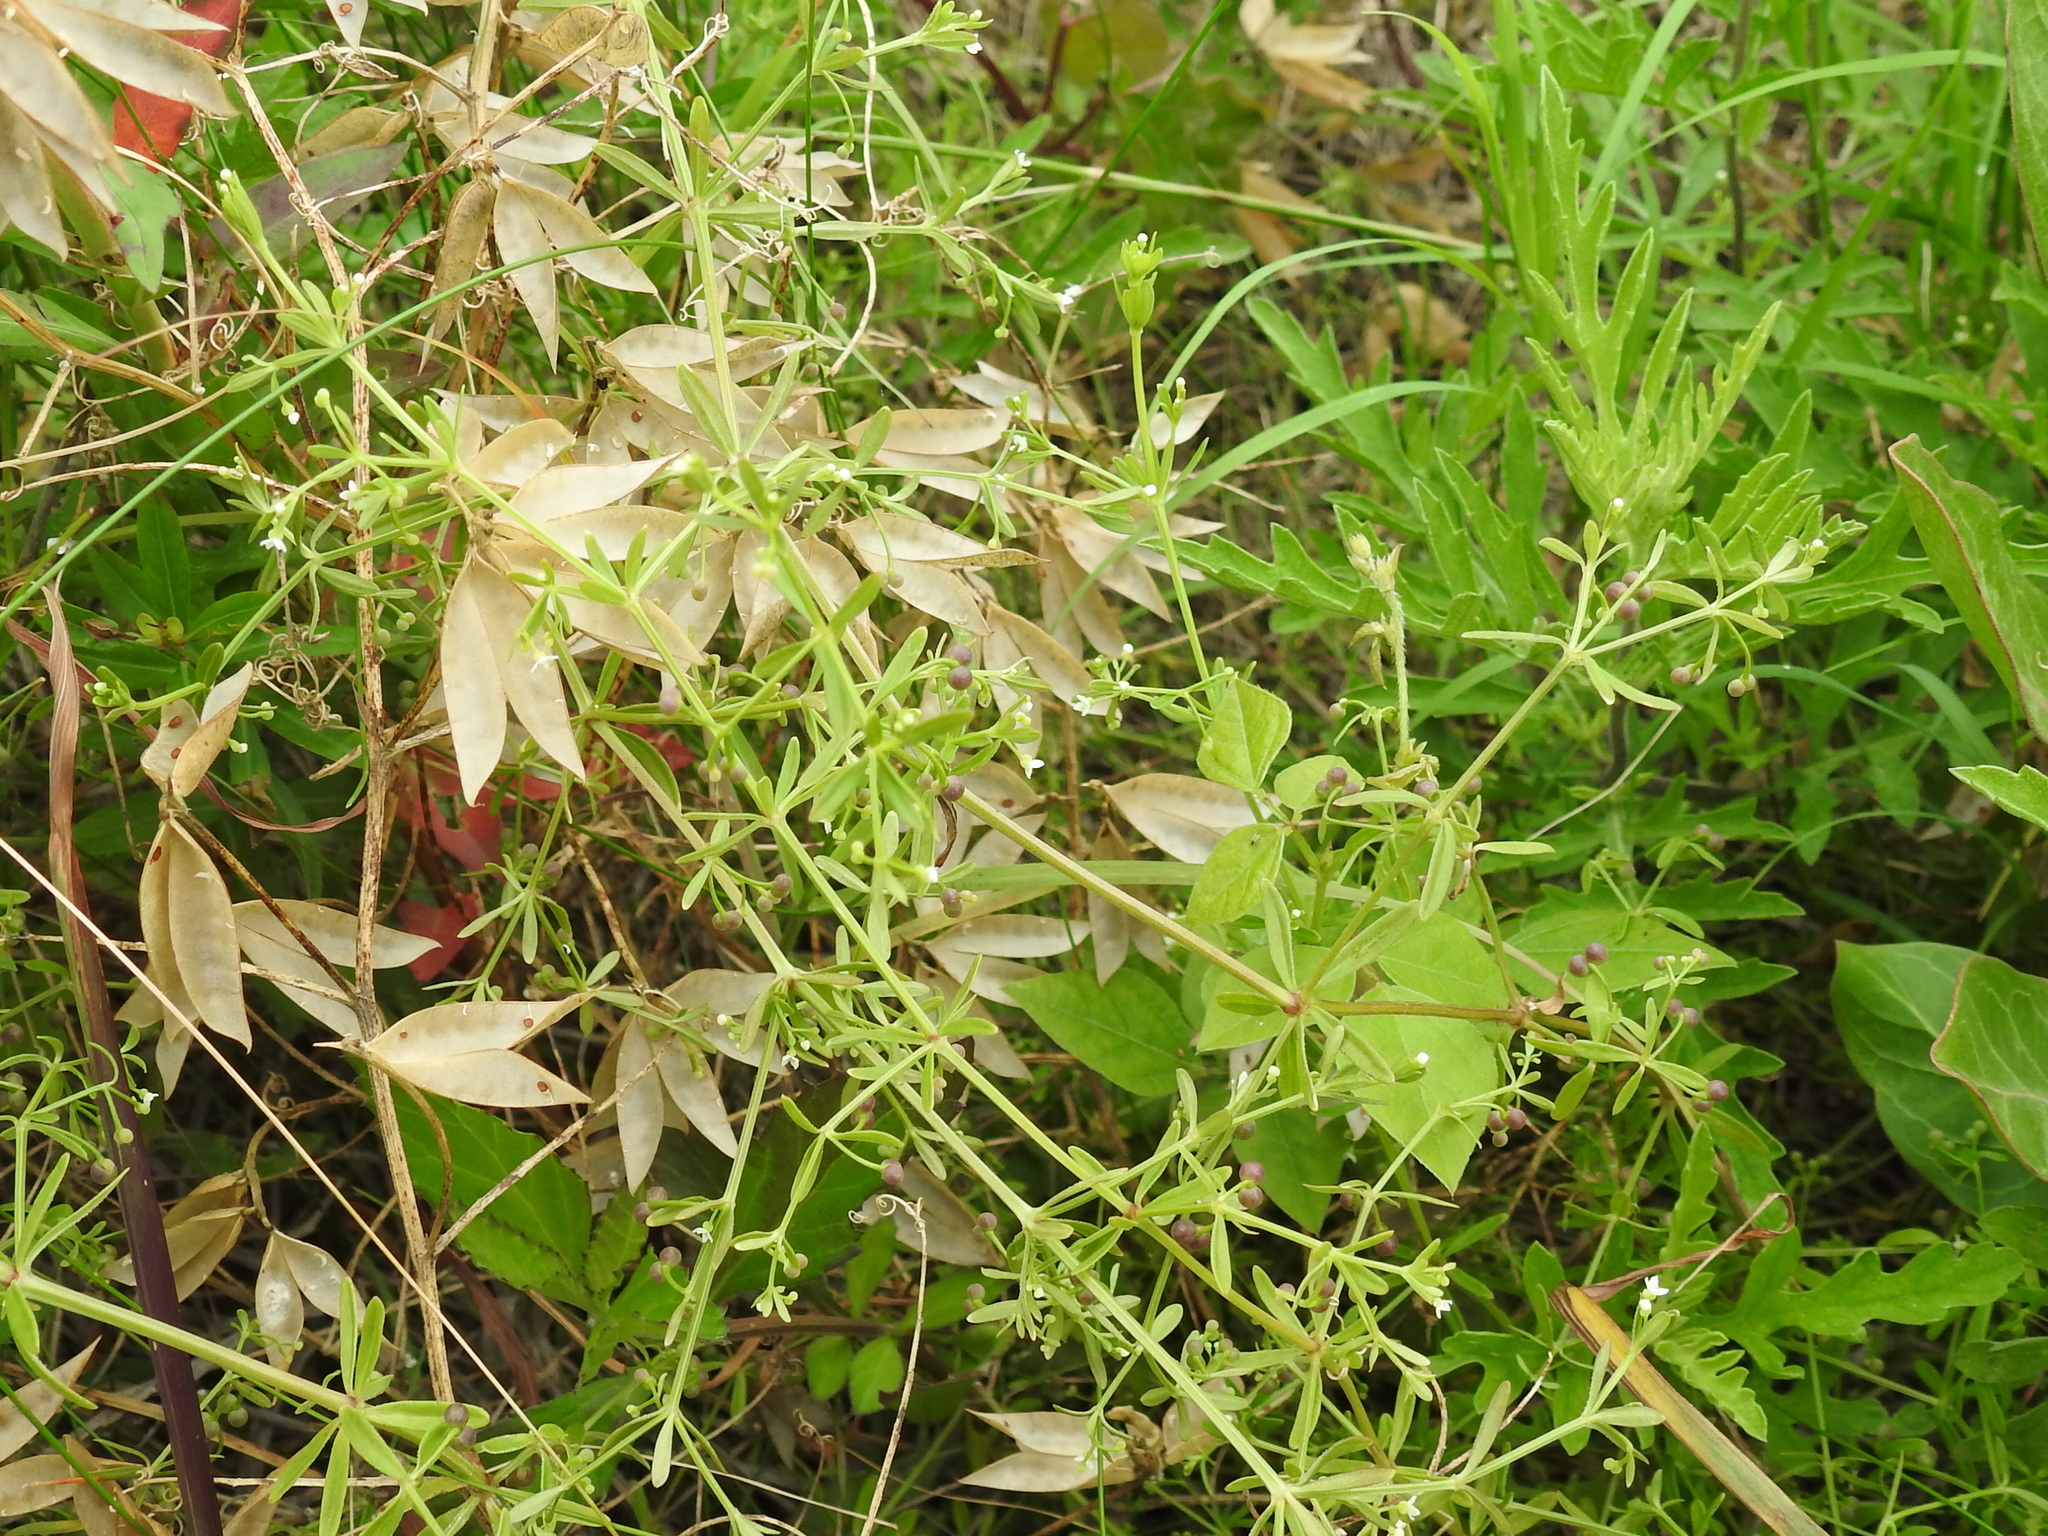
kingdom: Plantae
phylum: Tracheophyta
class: Magnoliopsida
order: Gentianales
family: Rubiaceae
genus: Galium
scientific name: Galium obtusum
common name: Blunt-leaved bedstraw
